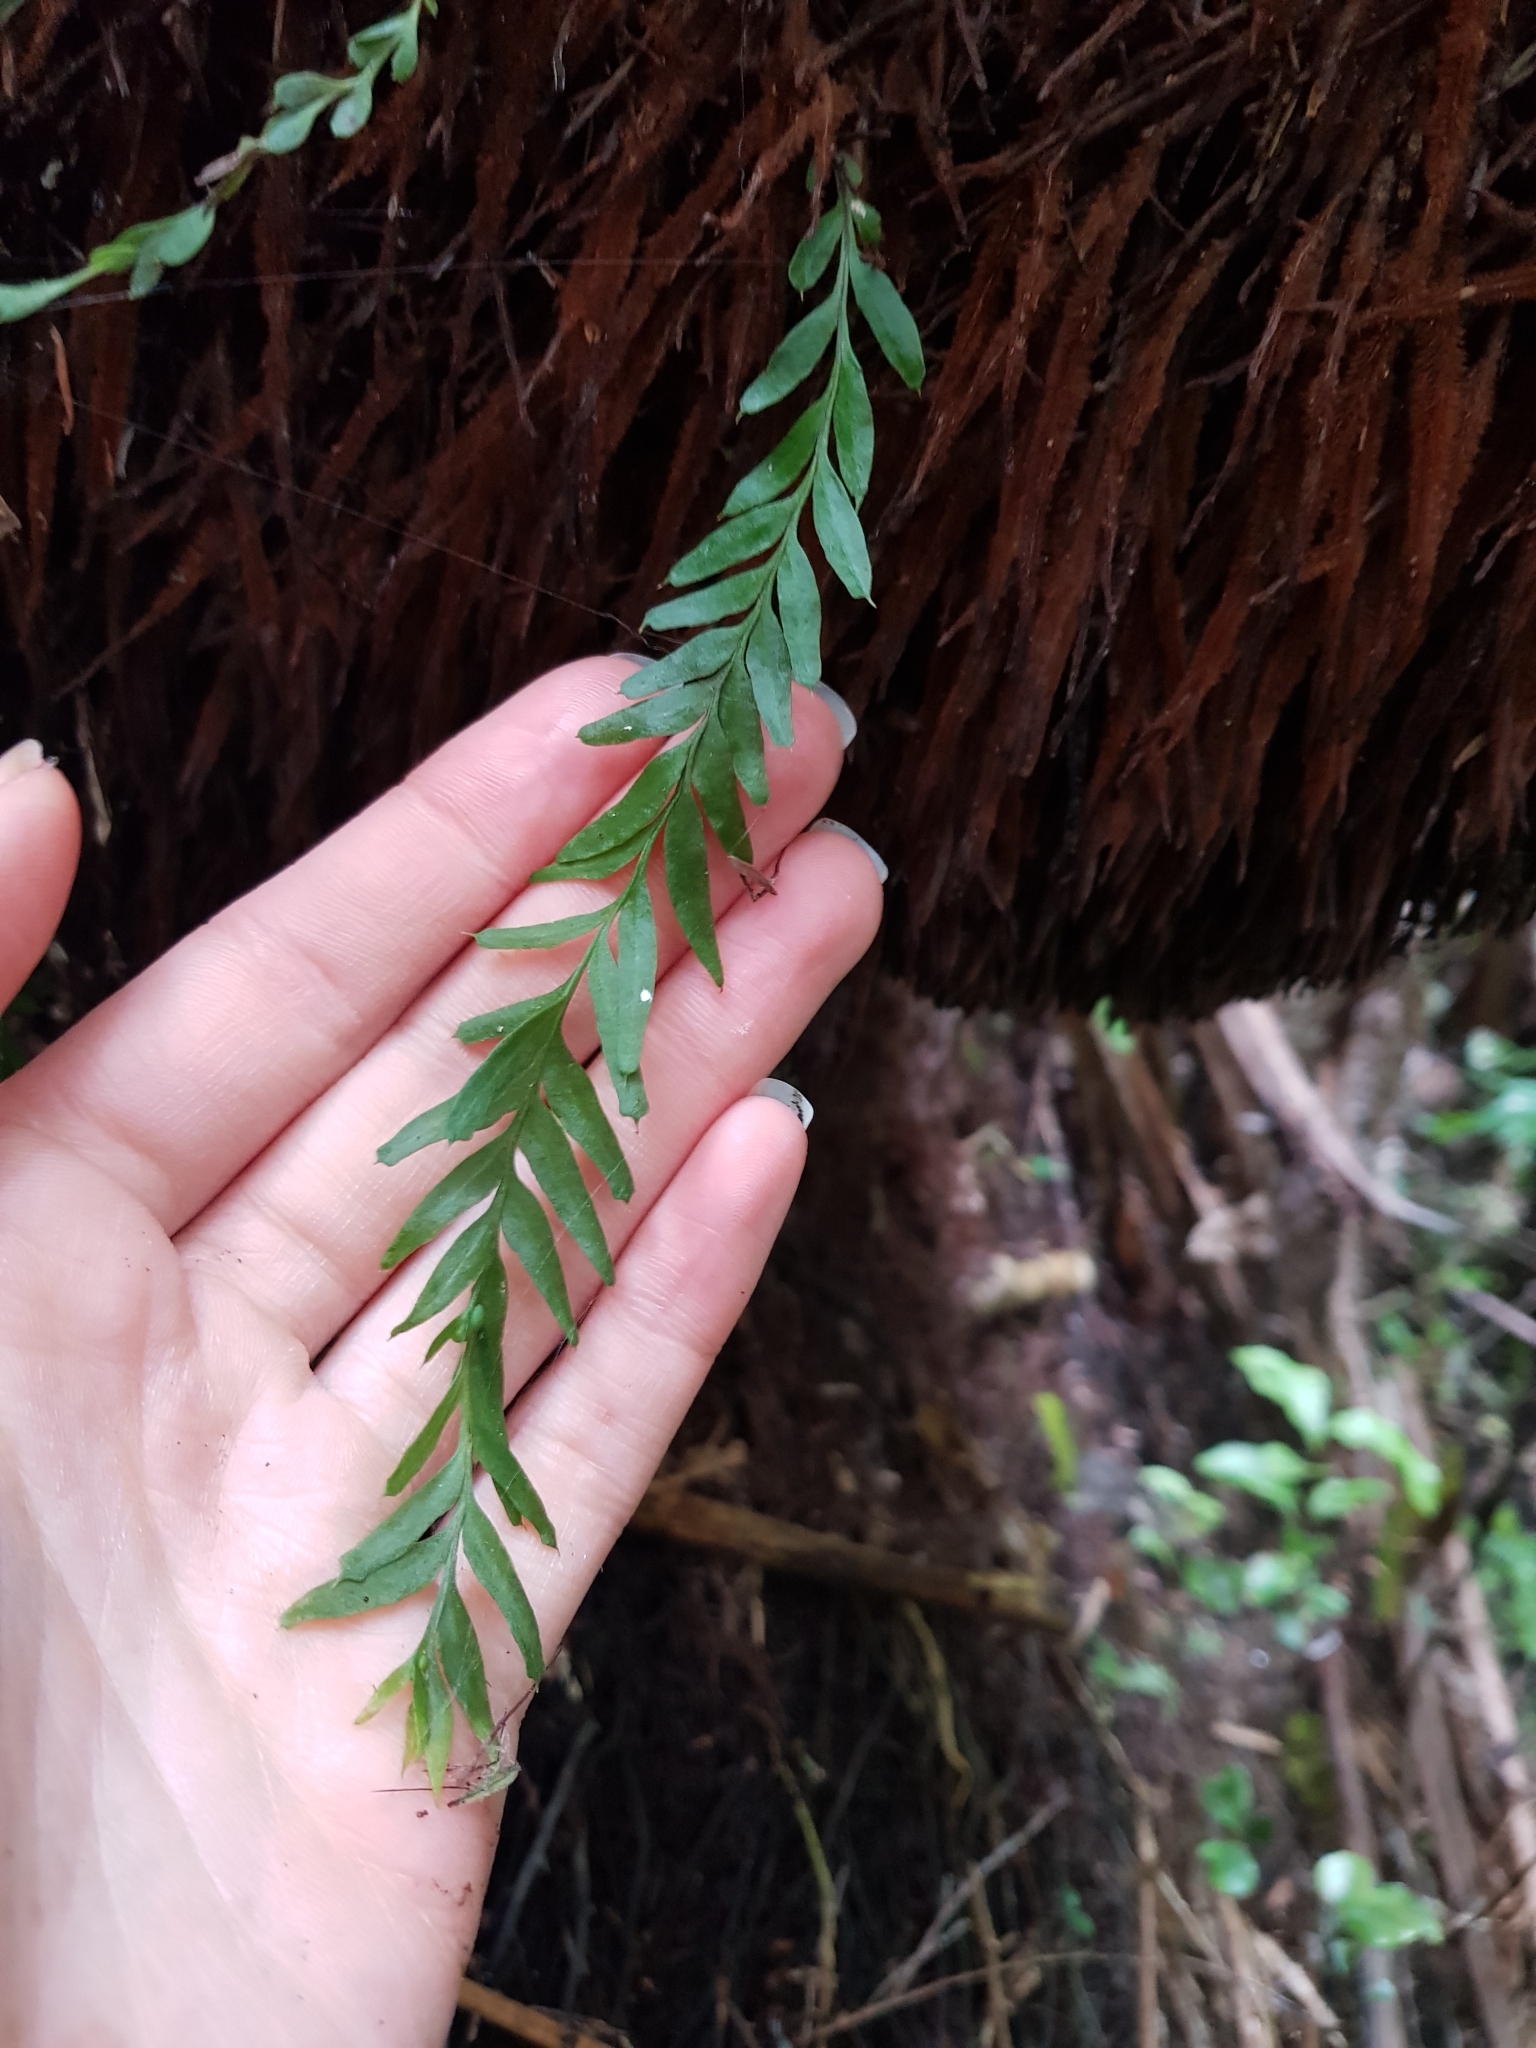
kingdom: Plantae
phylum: Tracheophyta
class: Polypodiopsida
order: Psilotales
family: Psilotaceae
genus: Tmesipteris
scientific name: Tmesipteris elongata
